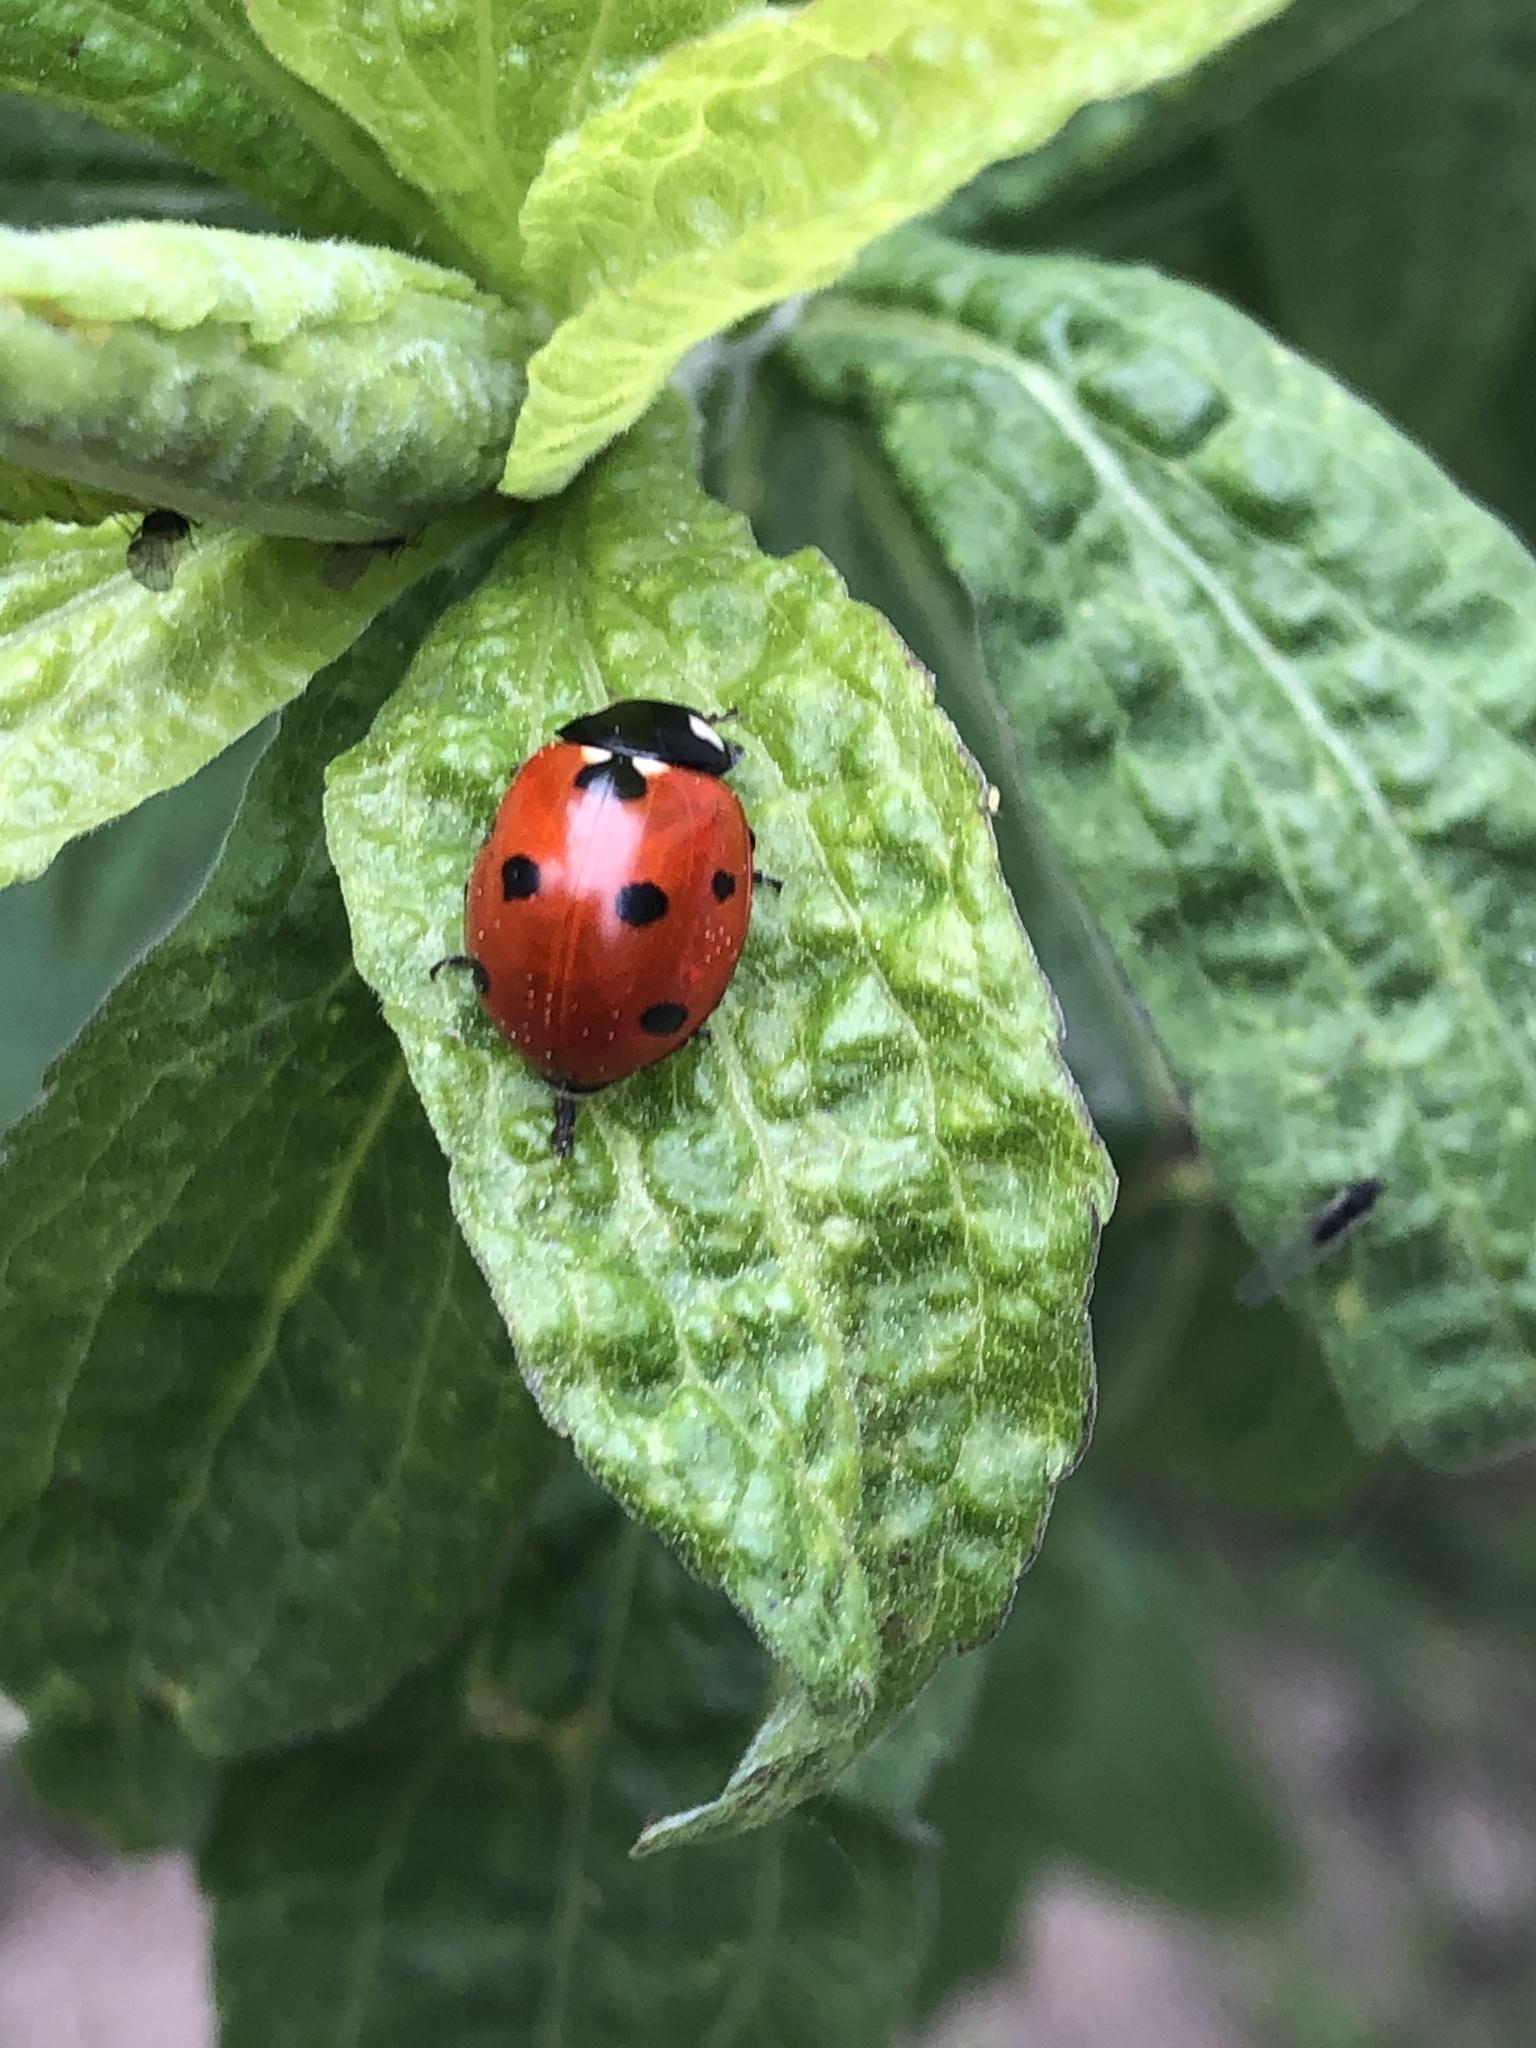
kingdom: Animalia
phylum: Arthropoda
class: Insecta
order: Coleoptera
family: Coccinellidae
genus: Coccinella
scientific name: Coccinella septempunctata
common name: Sevenspotted lady beetle
